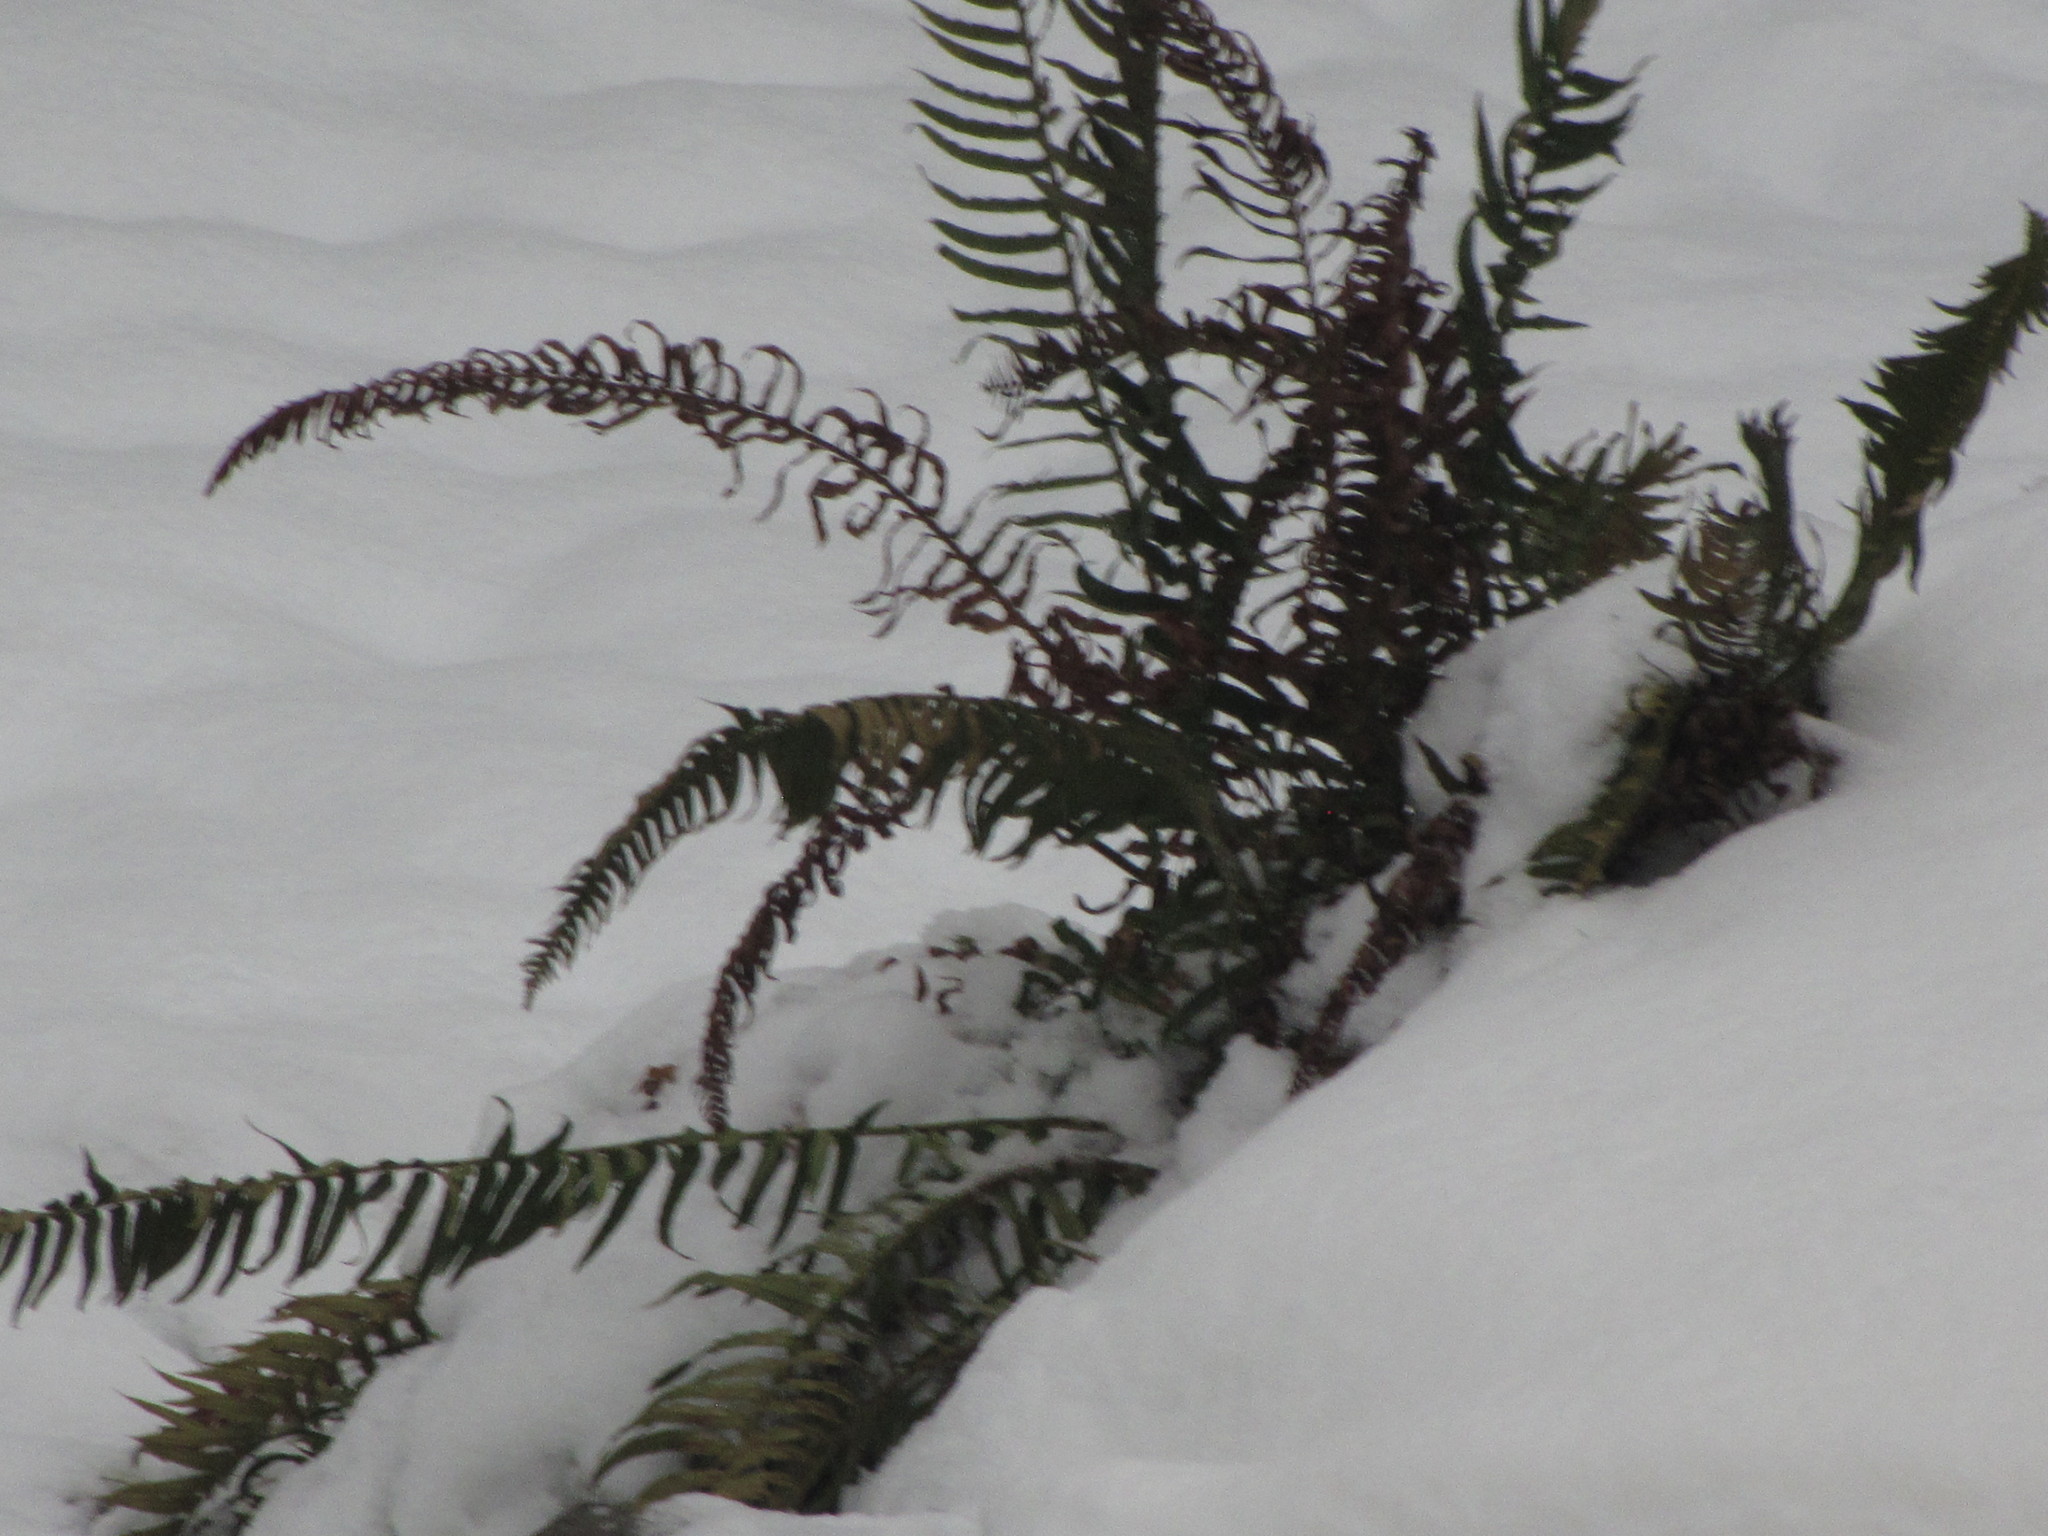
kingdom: Plantae
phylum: Tracheophyta
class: Polypodiopsida
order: Polypodiales
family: Dryopteridaceae
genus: Polystichum
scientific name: Polystichum munitum
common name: Western sword-fern
